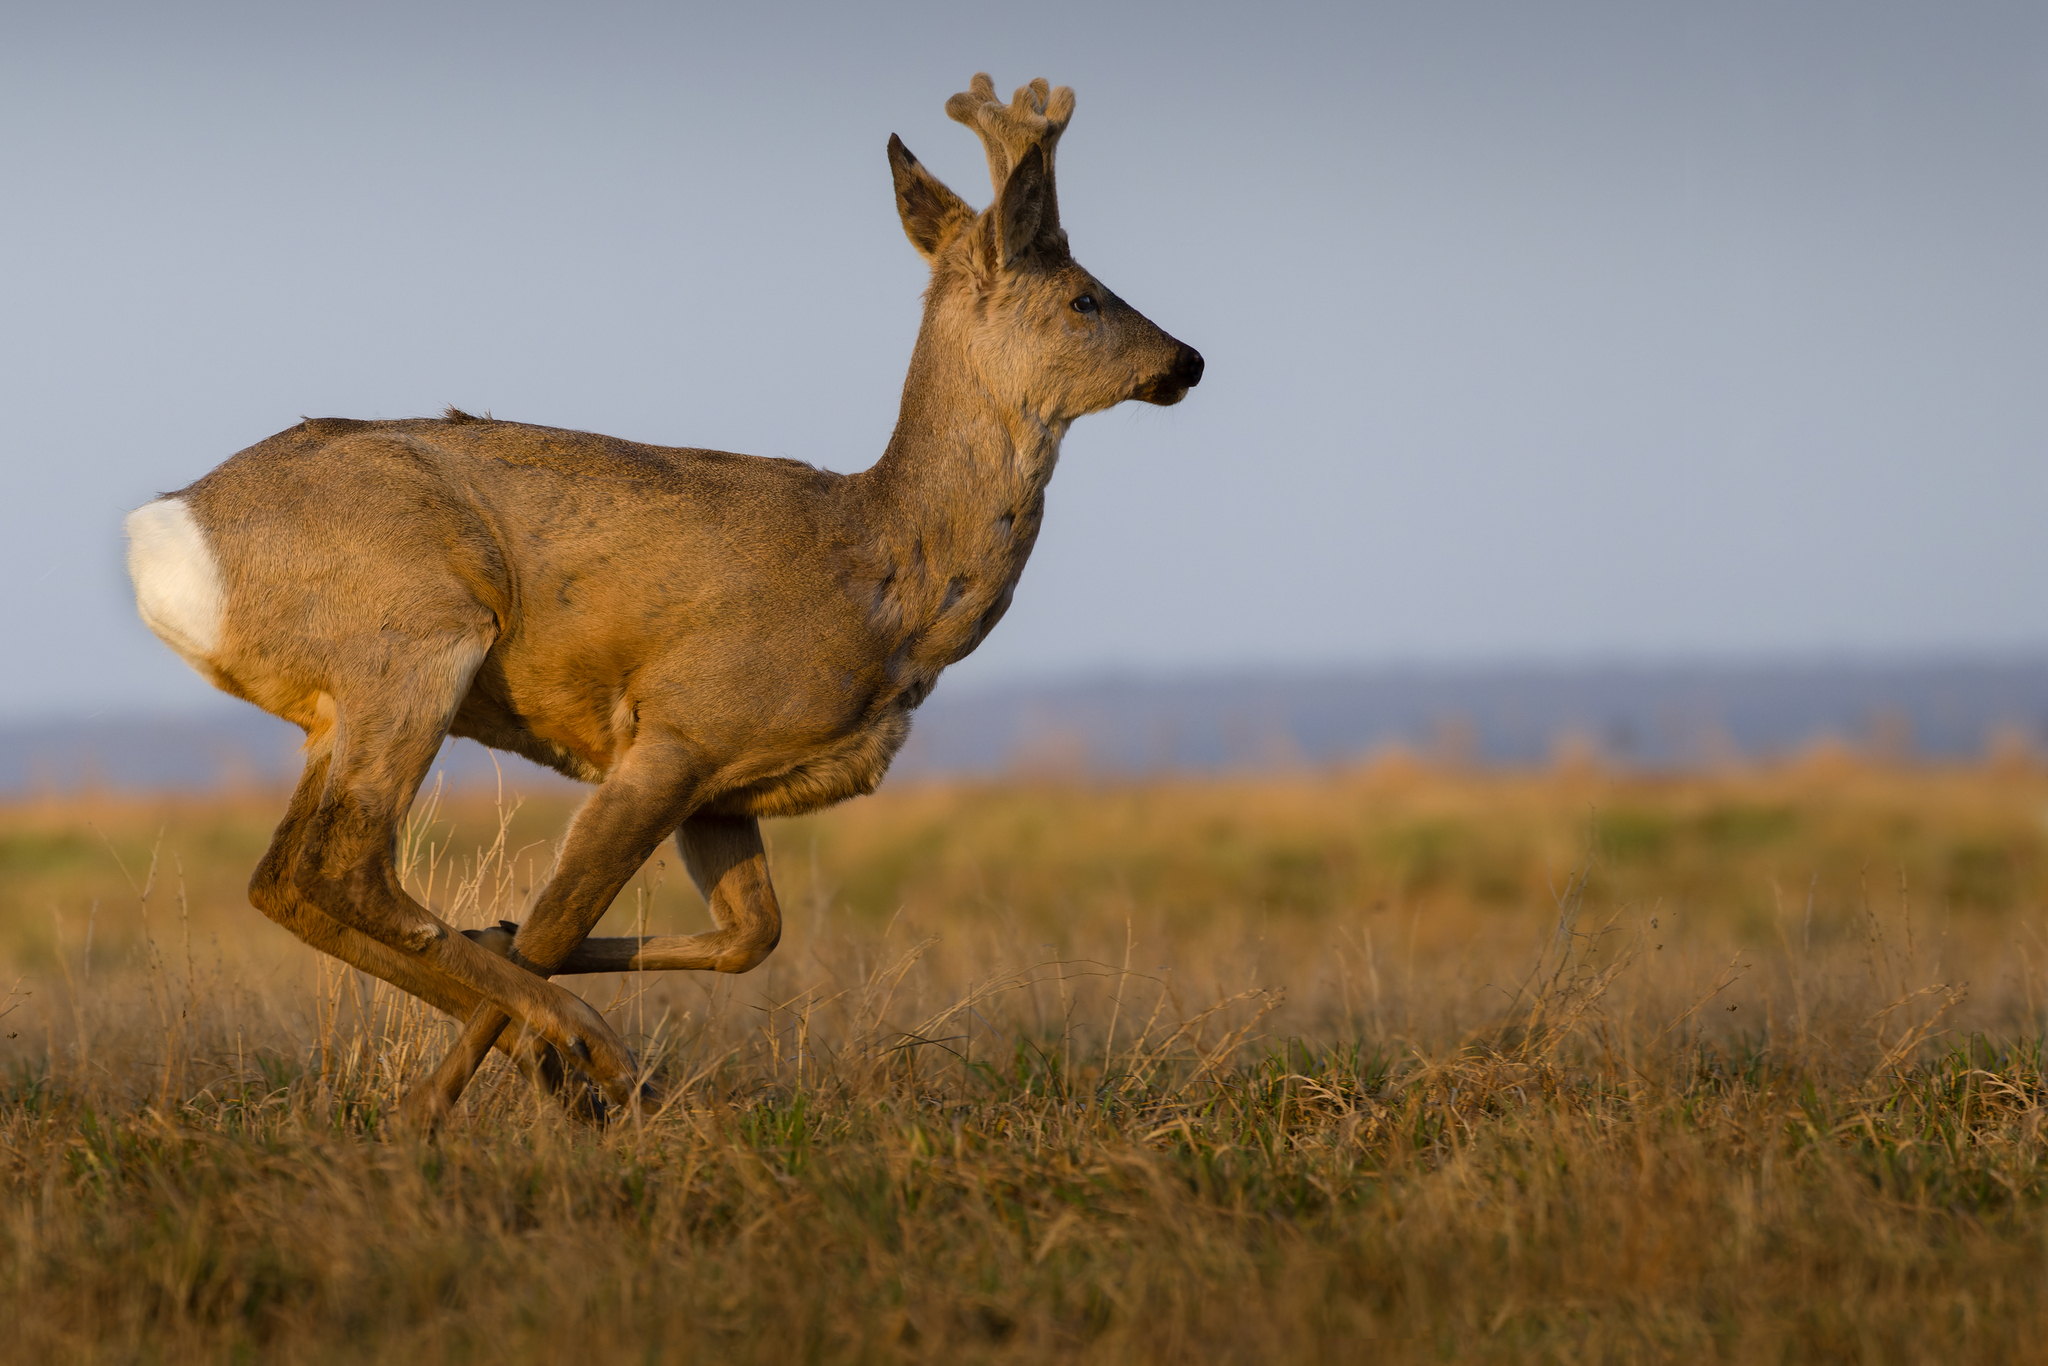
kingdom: Animalia
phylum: Chordata
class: Mammalia
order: Artiodactyla
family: Cervidae
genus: Capreolus
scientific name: Capreolus pygargus
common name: Siberian roe
